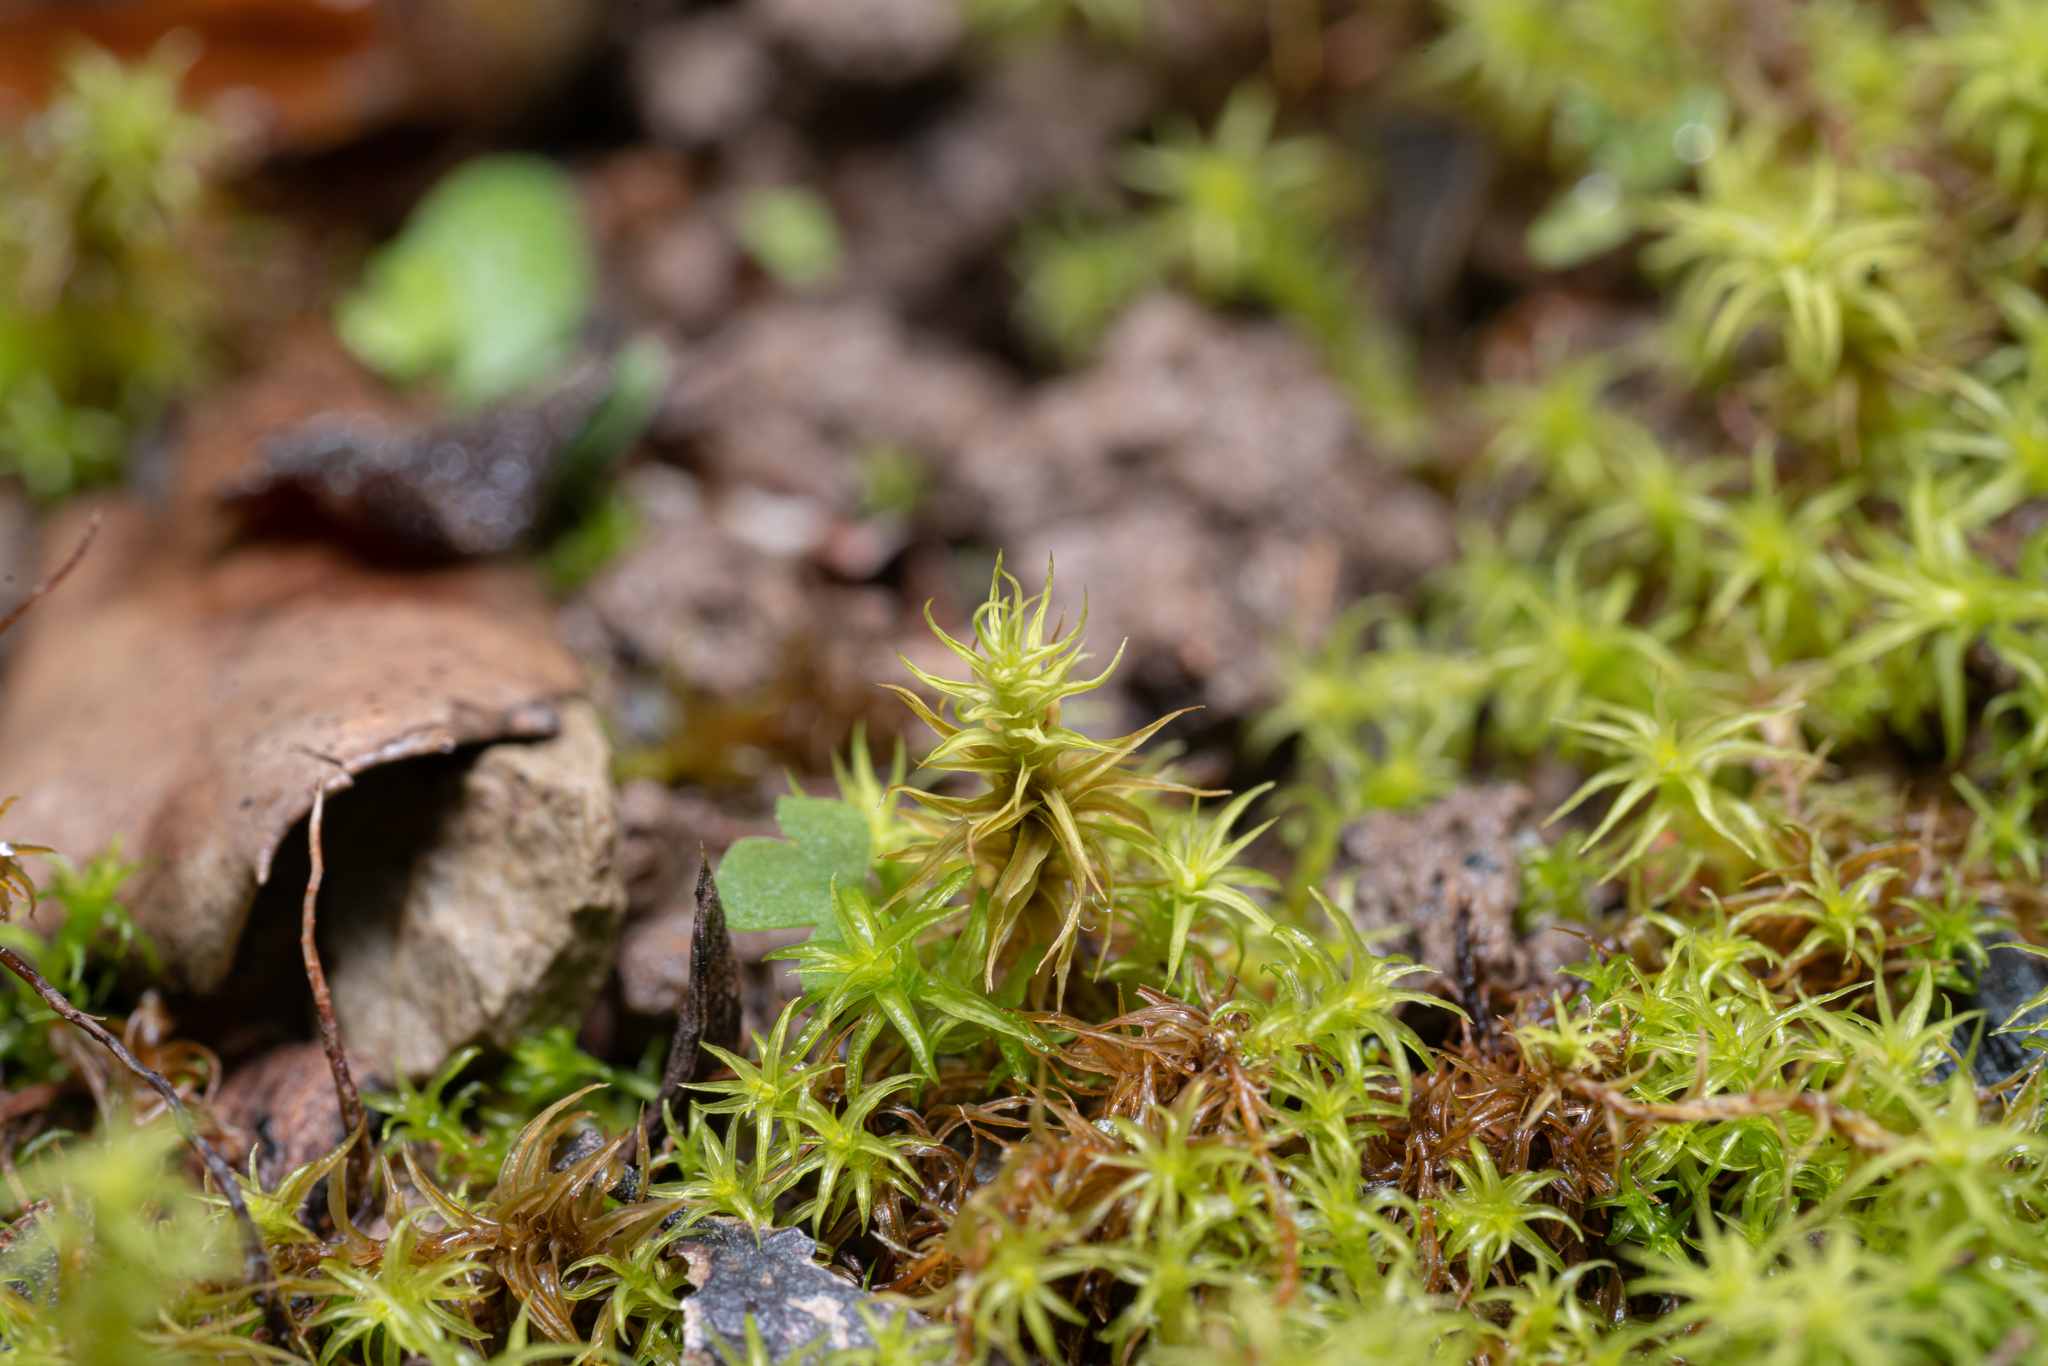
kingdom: Plantae
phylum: Bryophyta
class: Bryopsida
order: Pottiales
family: Pottiaceae
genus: Pleurochaete
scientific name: Pleurochaete squarrosa
